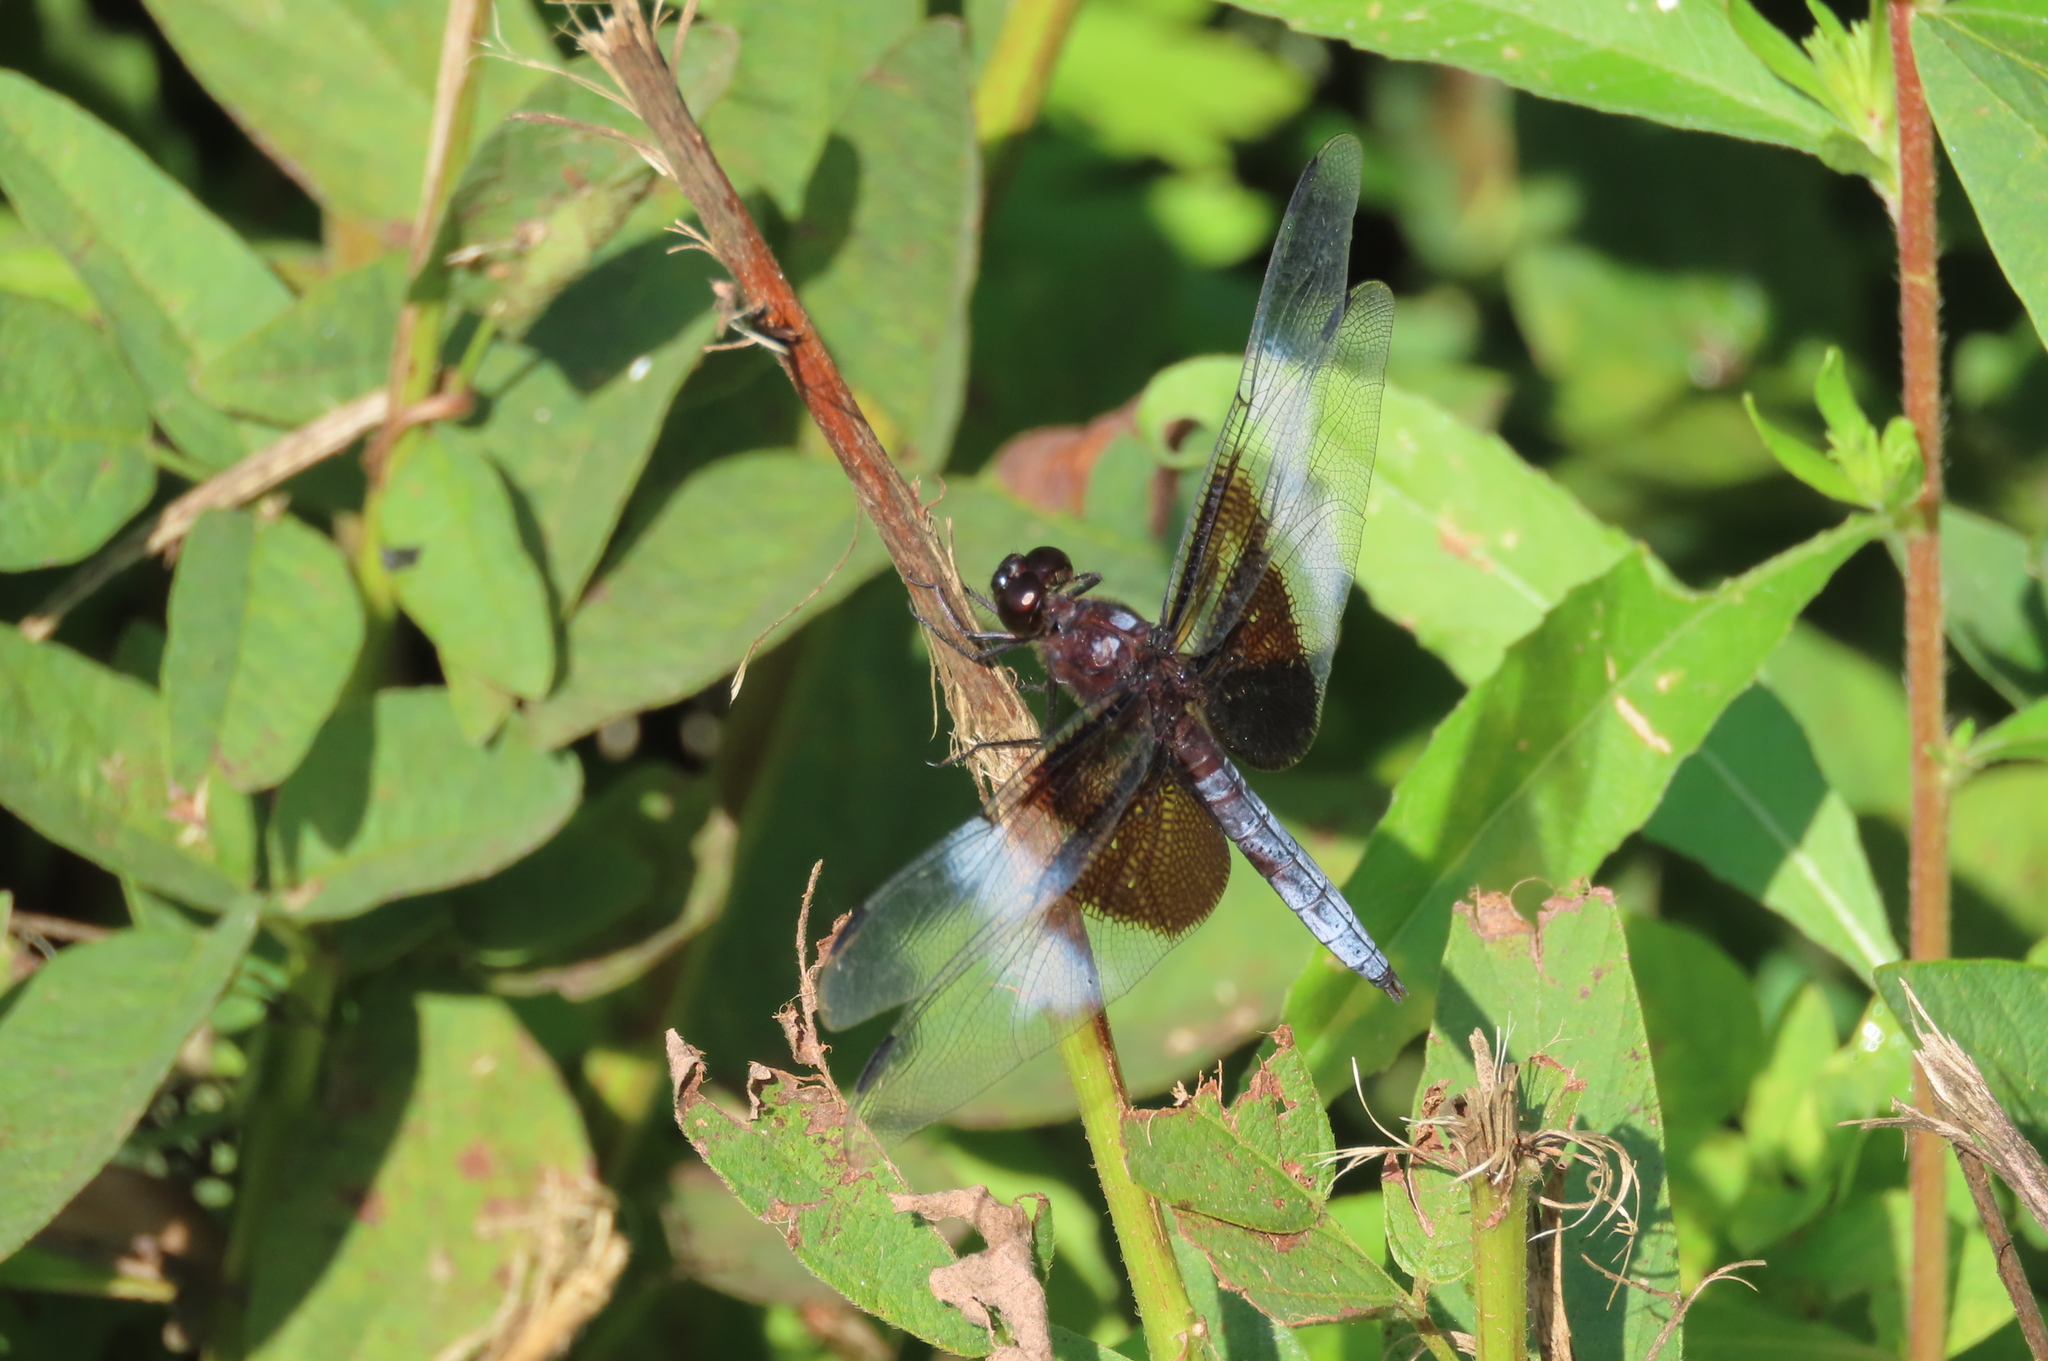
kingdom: Animalia
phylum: Arthropoda
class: Insecta
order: Odonata
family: Libellulidae
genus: Libellula
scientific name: Libellula luctuosa
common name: Widow skimmer
